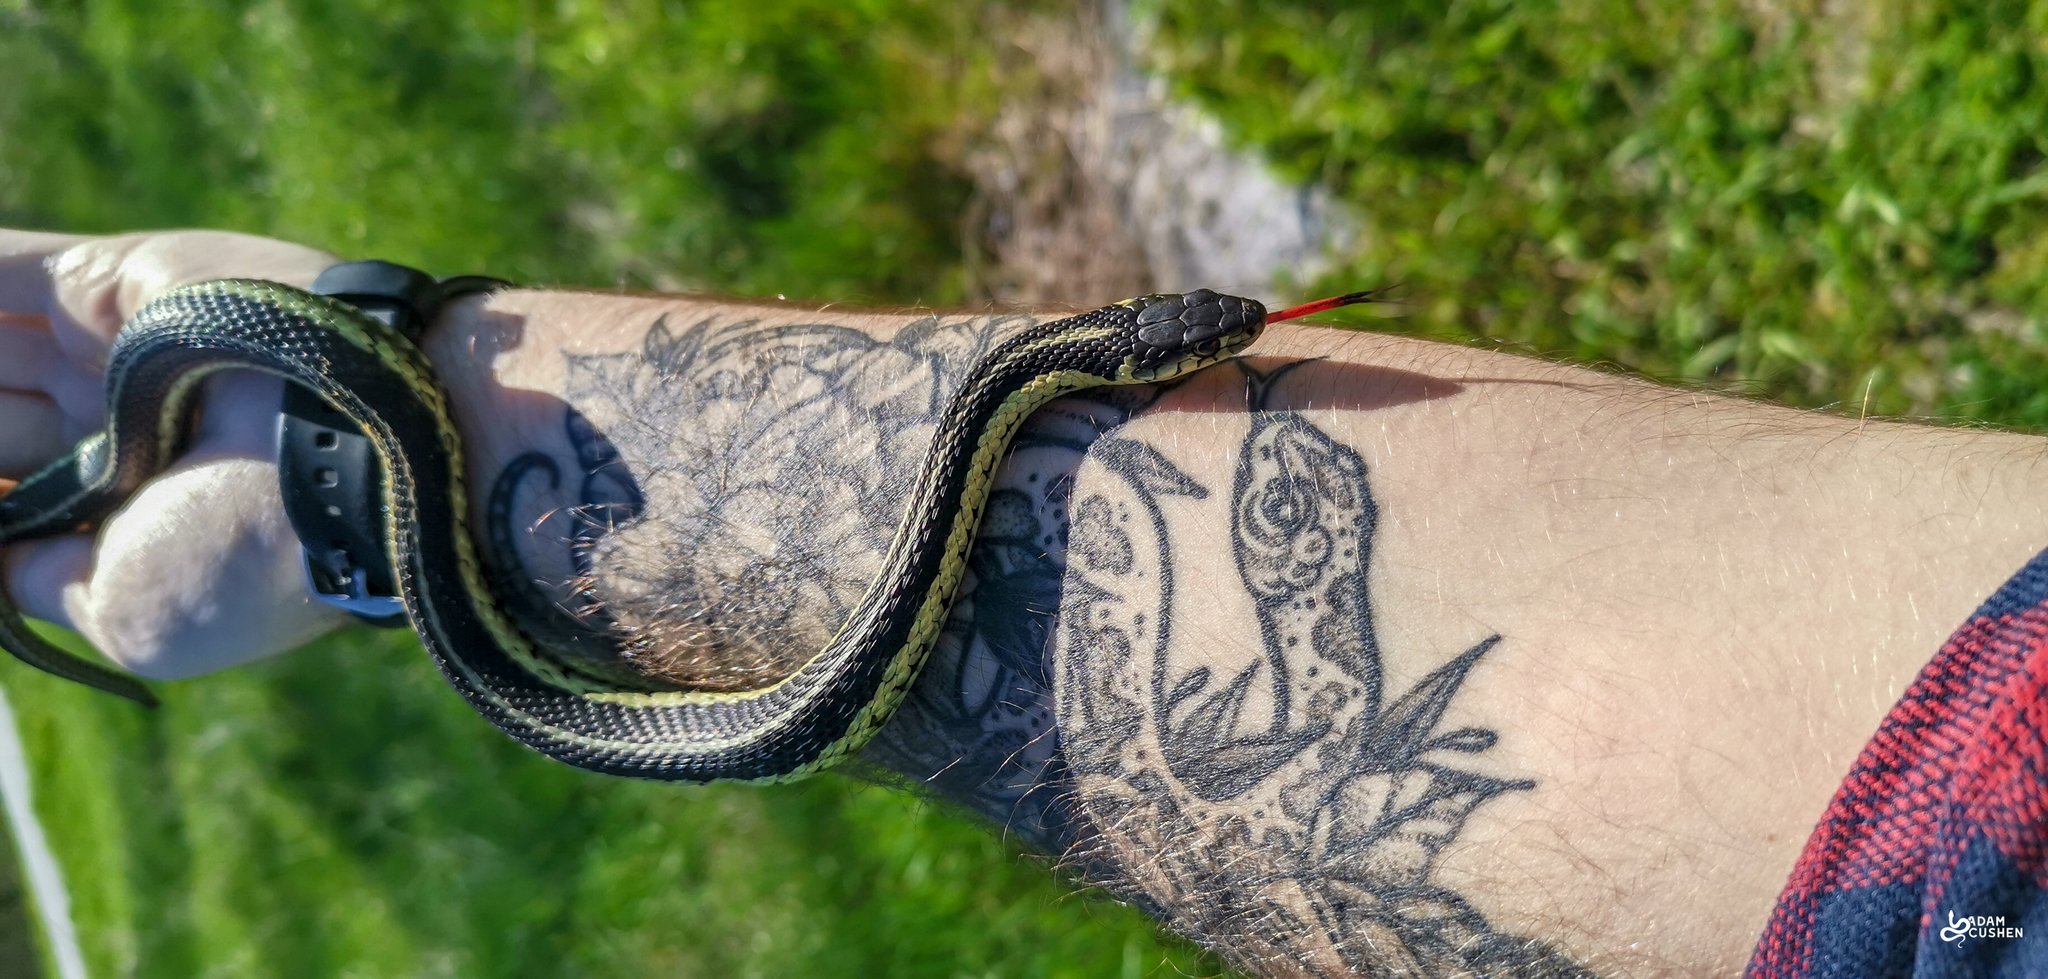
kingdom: Animalia
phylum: Chordata
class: Squamata
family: Colubridae
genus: Thamnophis
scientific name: Thamnophis sirtalis
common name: Common garter snake
